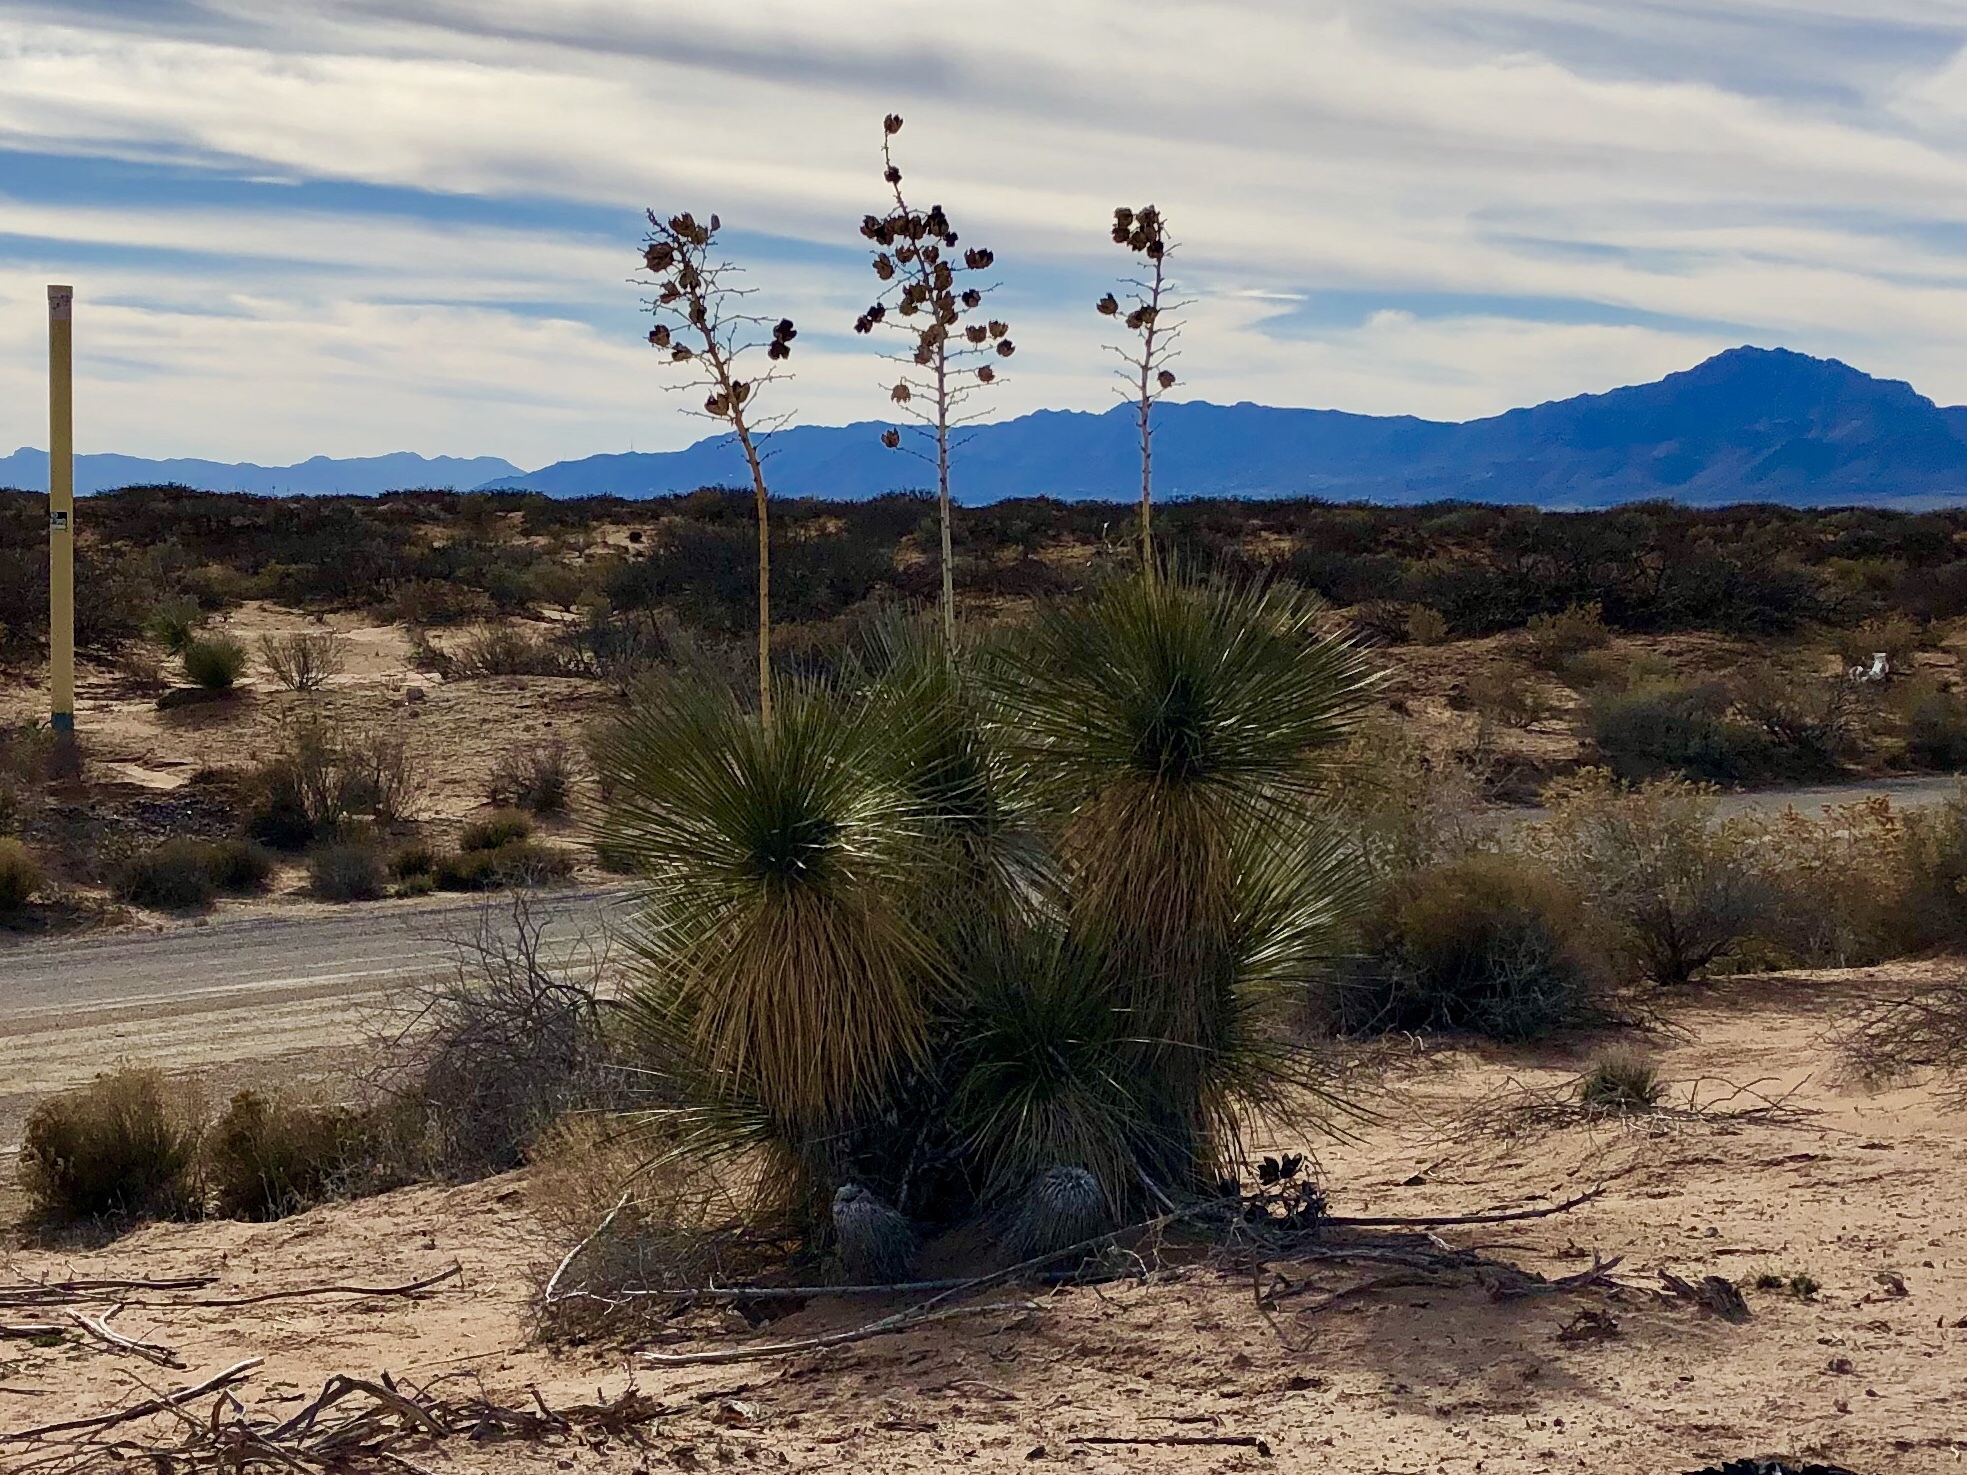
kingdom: Plantae
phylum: Tracheophyta
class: Liliopsida
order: Asparagales
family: Asparagaceae
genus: Yucca
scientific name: Yucca elata
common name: Palmella
